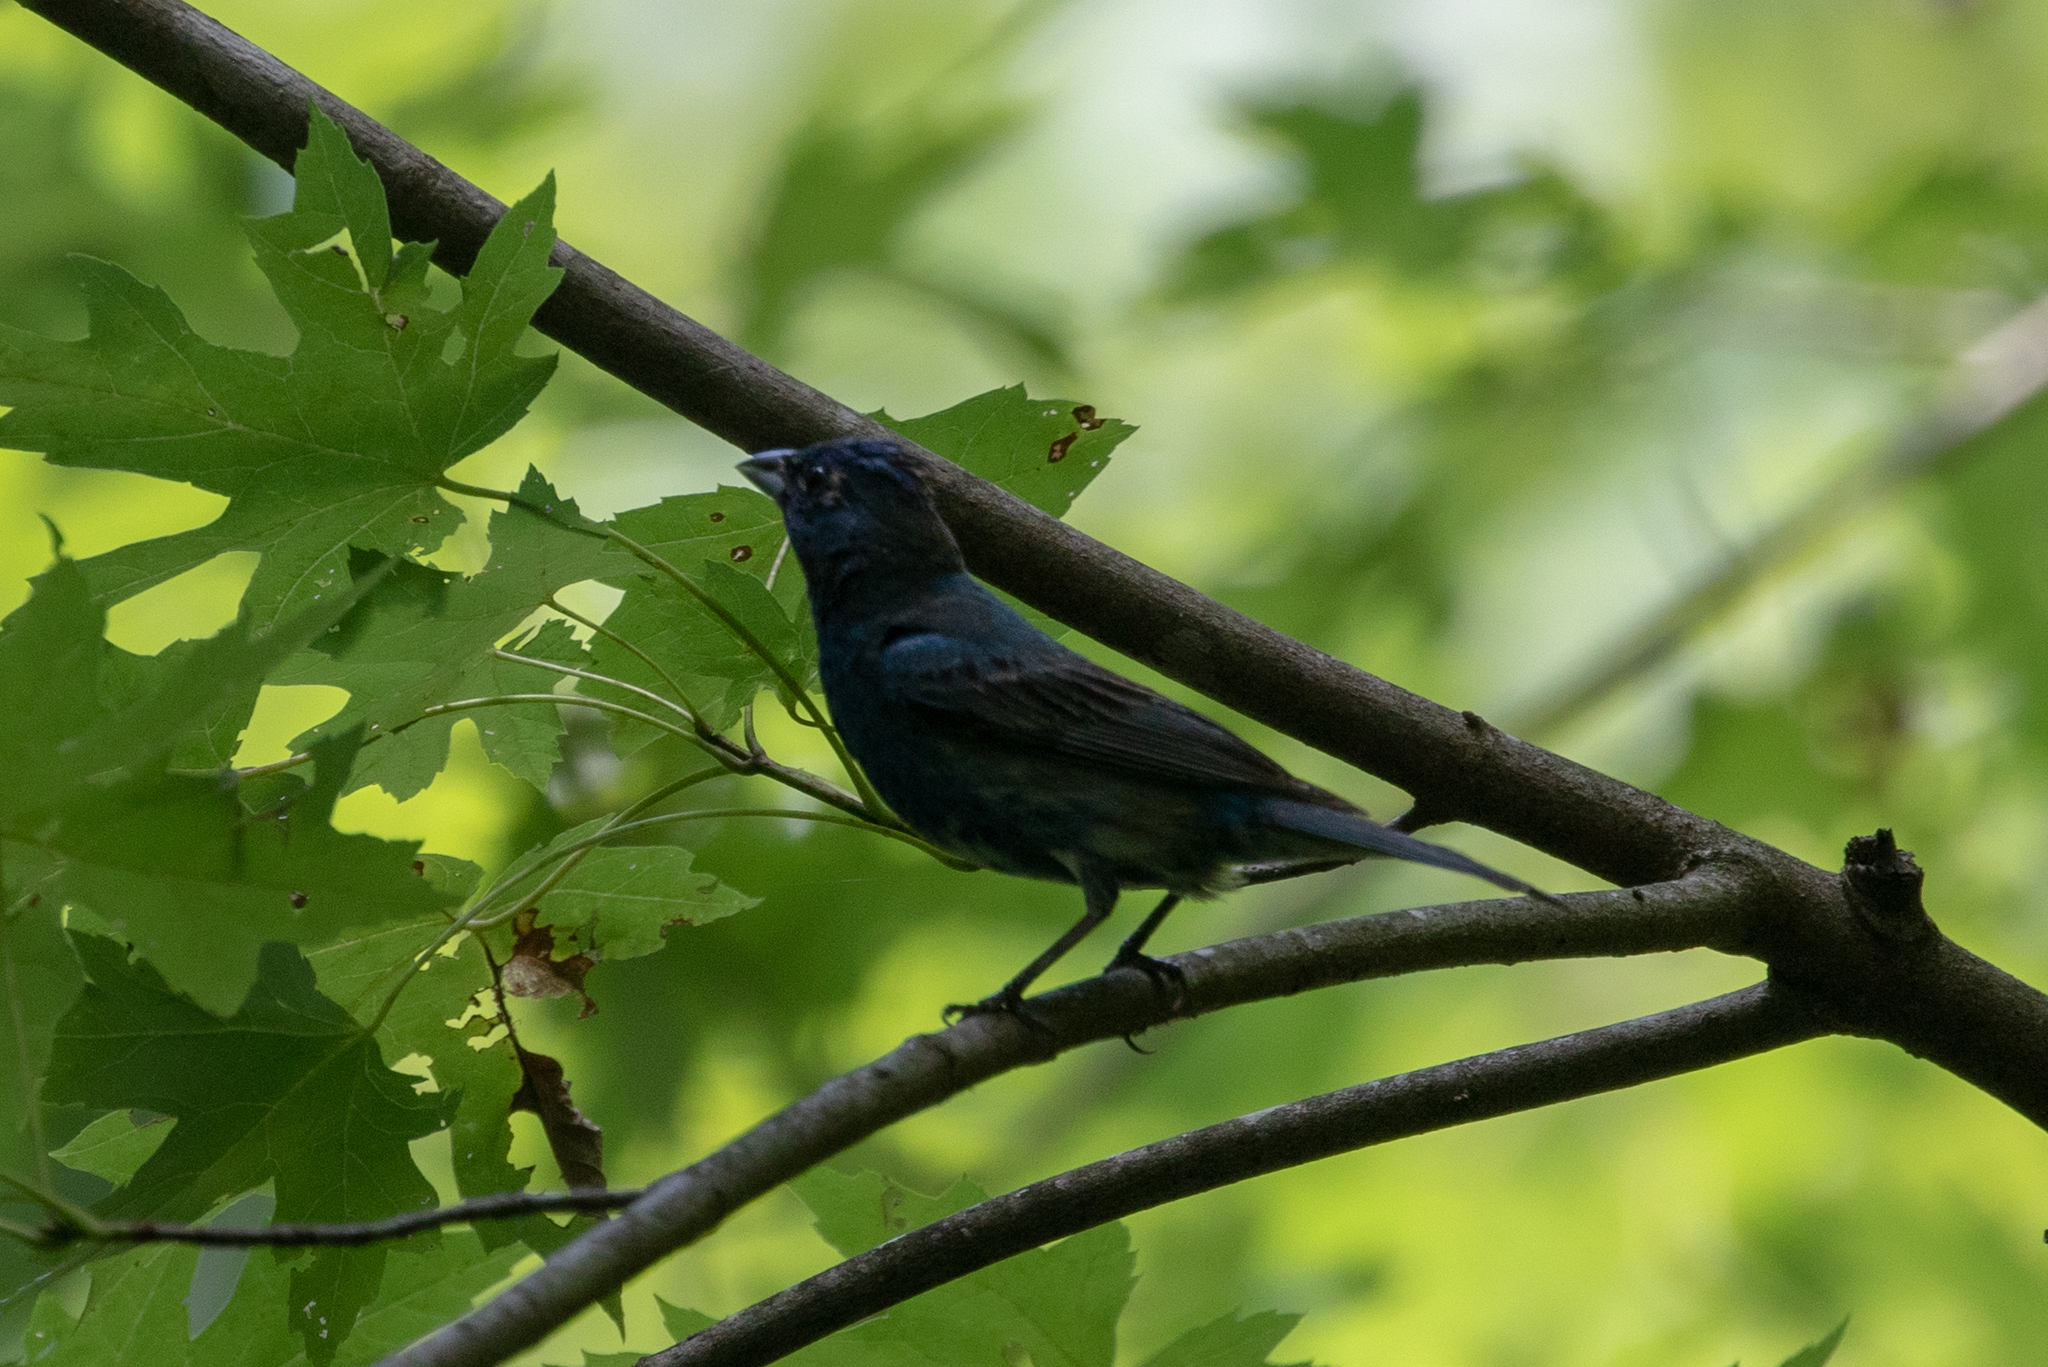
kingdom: Animalia
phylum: Chordata
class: Aves
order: Passeriformes
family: Cardinalidae
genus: Passerina
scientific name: Passerina cyanea
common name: Indigo bunting
